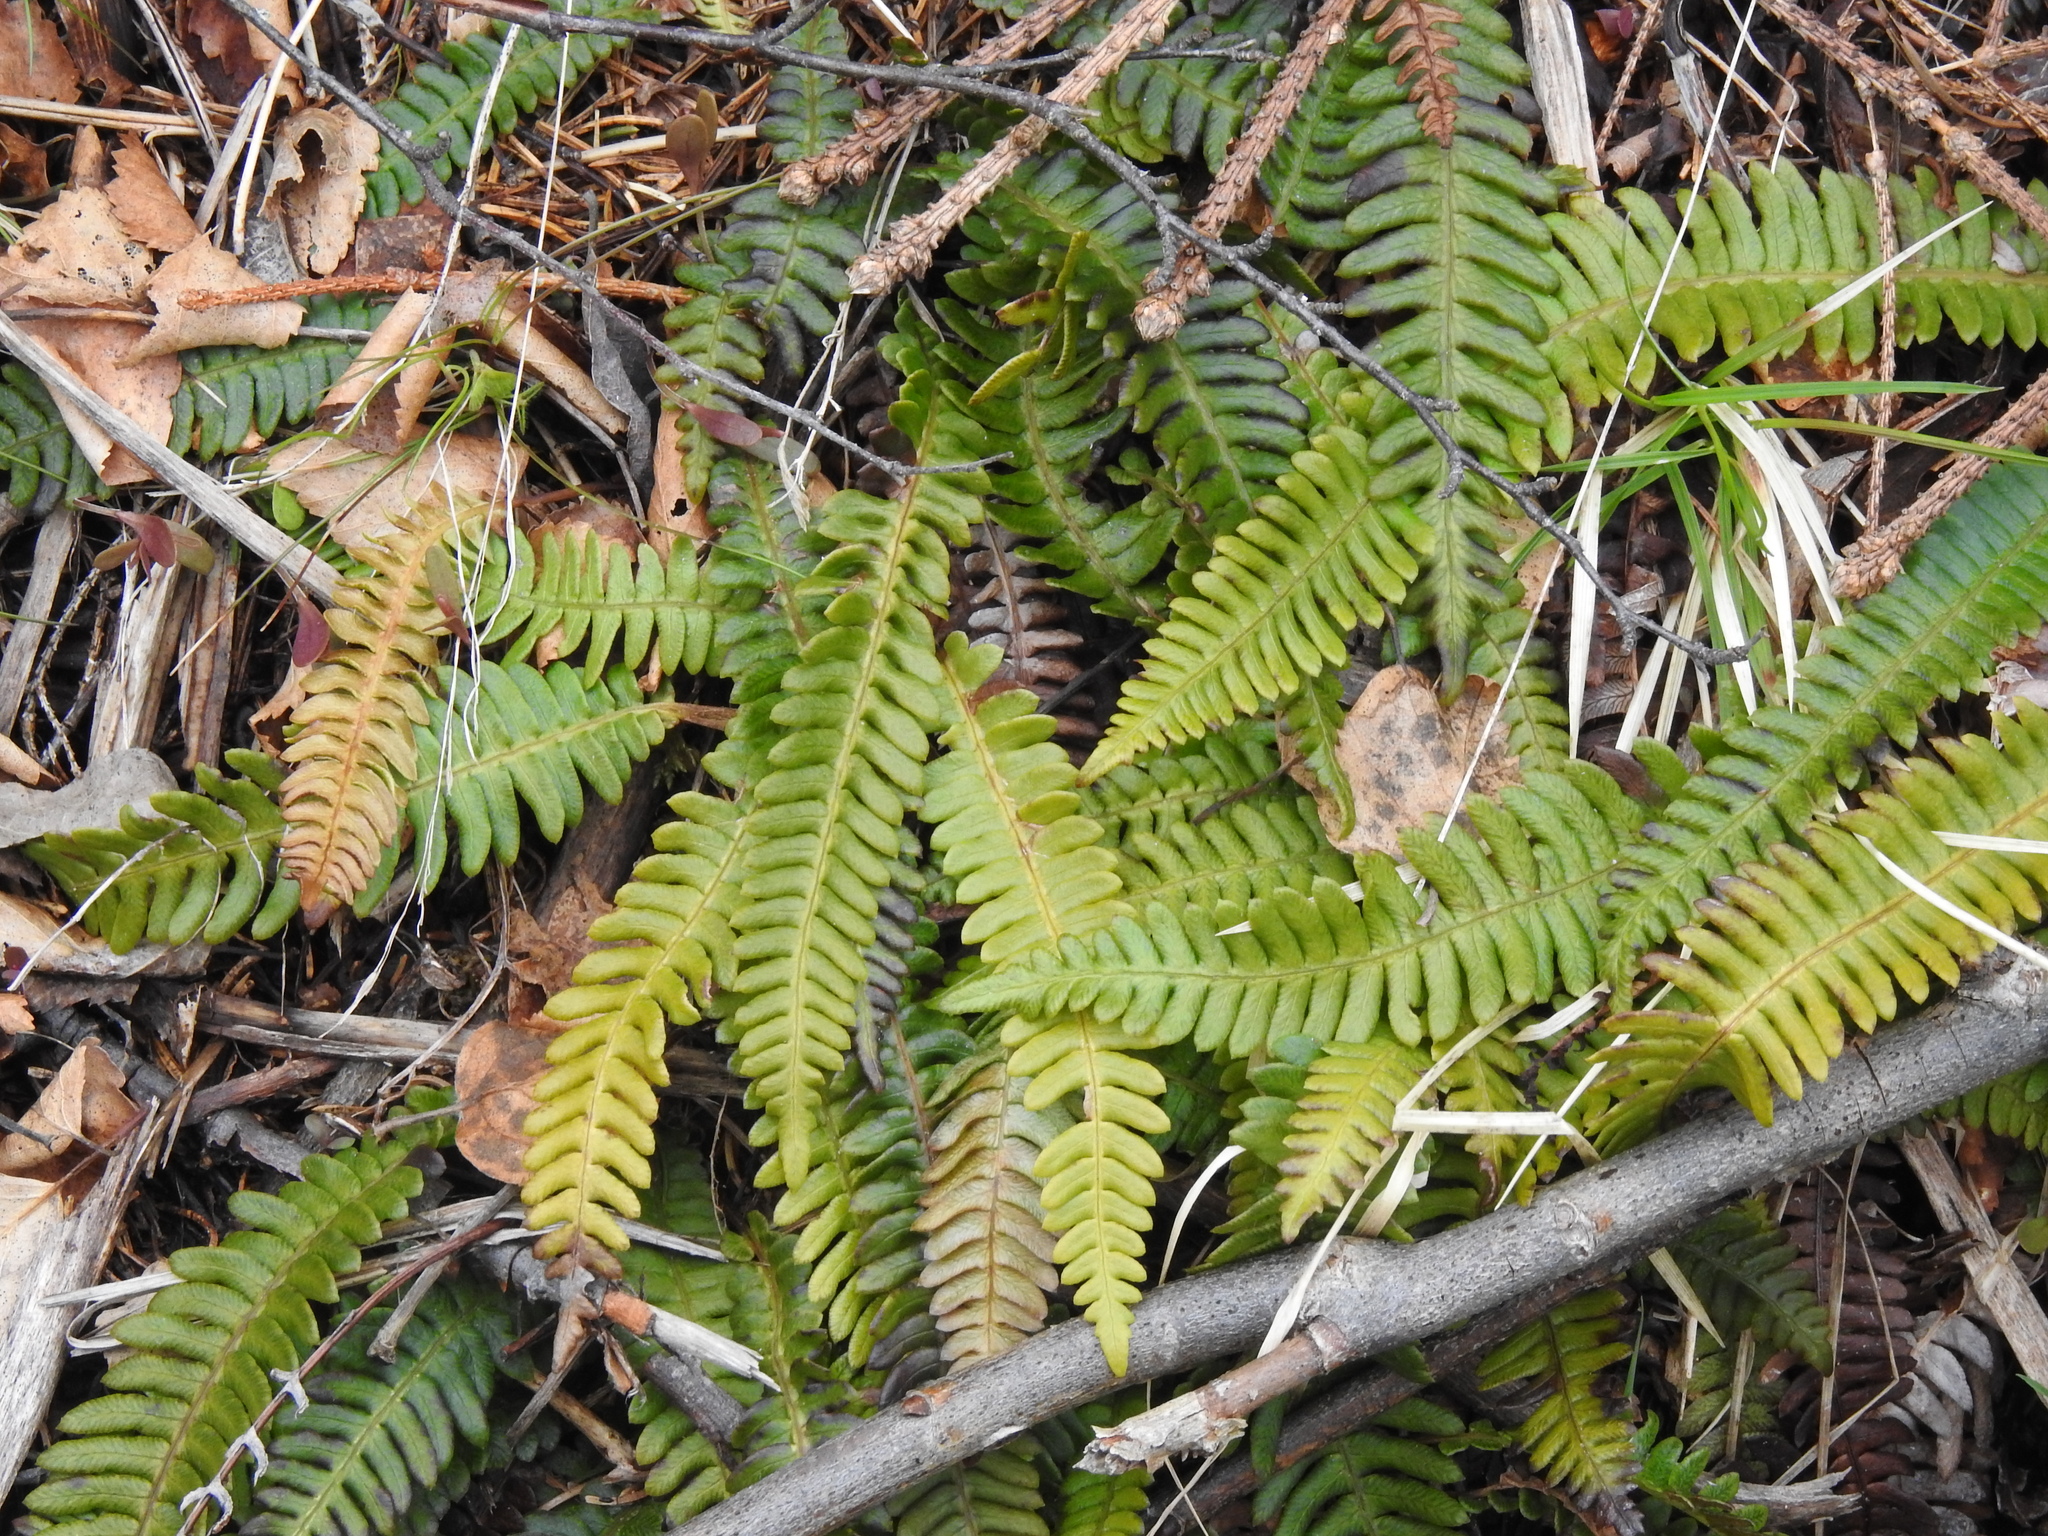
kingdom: Plantae
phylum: Tracheophyta
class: Polypodiopsida
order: Polypodiales
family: Blechnaceae
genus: Struthiopteris
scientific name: Struthiopteris spicant
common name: Deer fern
